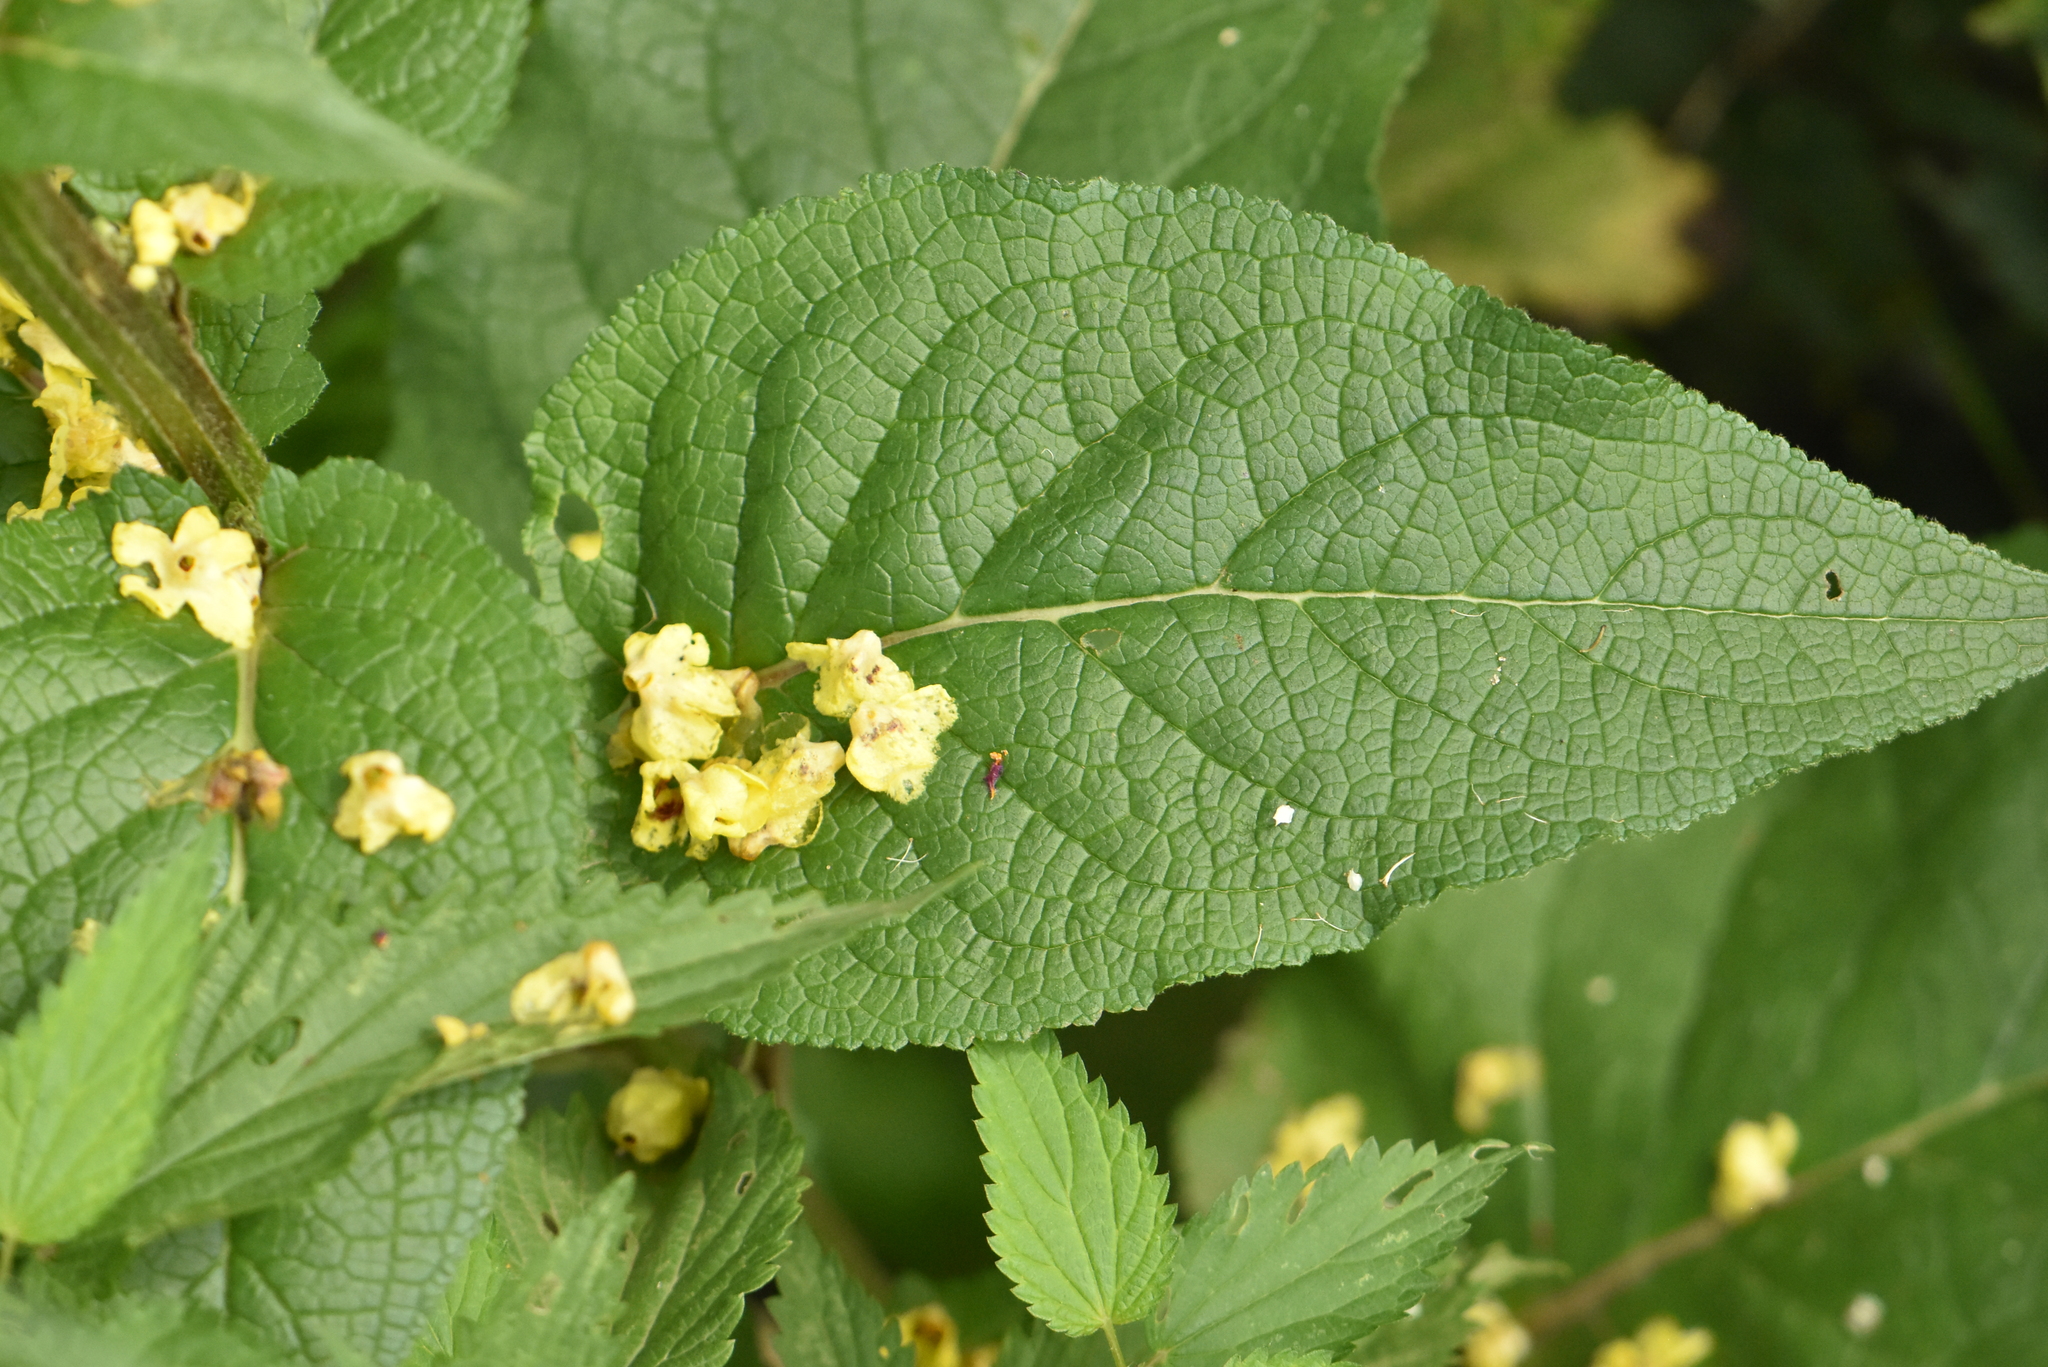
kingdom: Plantae
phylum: Tracheophyta
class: Magnoliopsida
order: Lamiales
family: Scrophulariaceae
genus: Verbascum
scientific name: Verbascum nigrum
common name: Dark mullein
